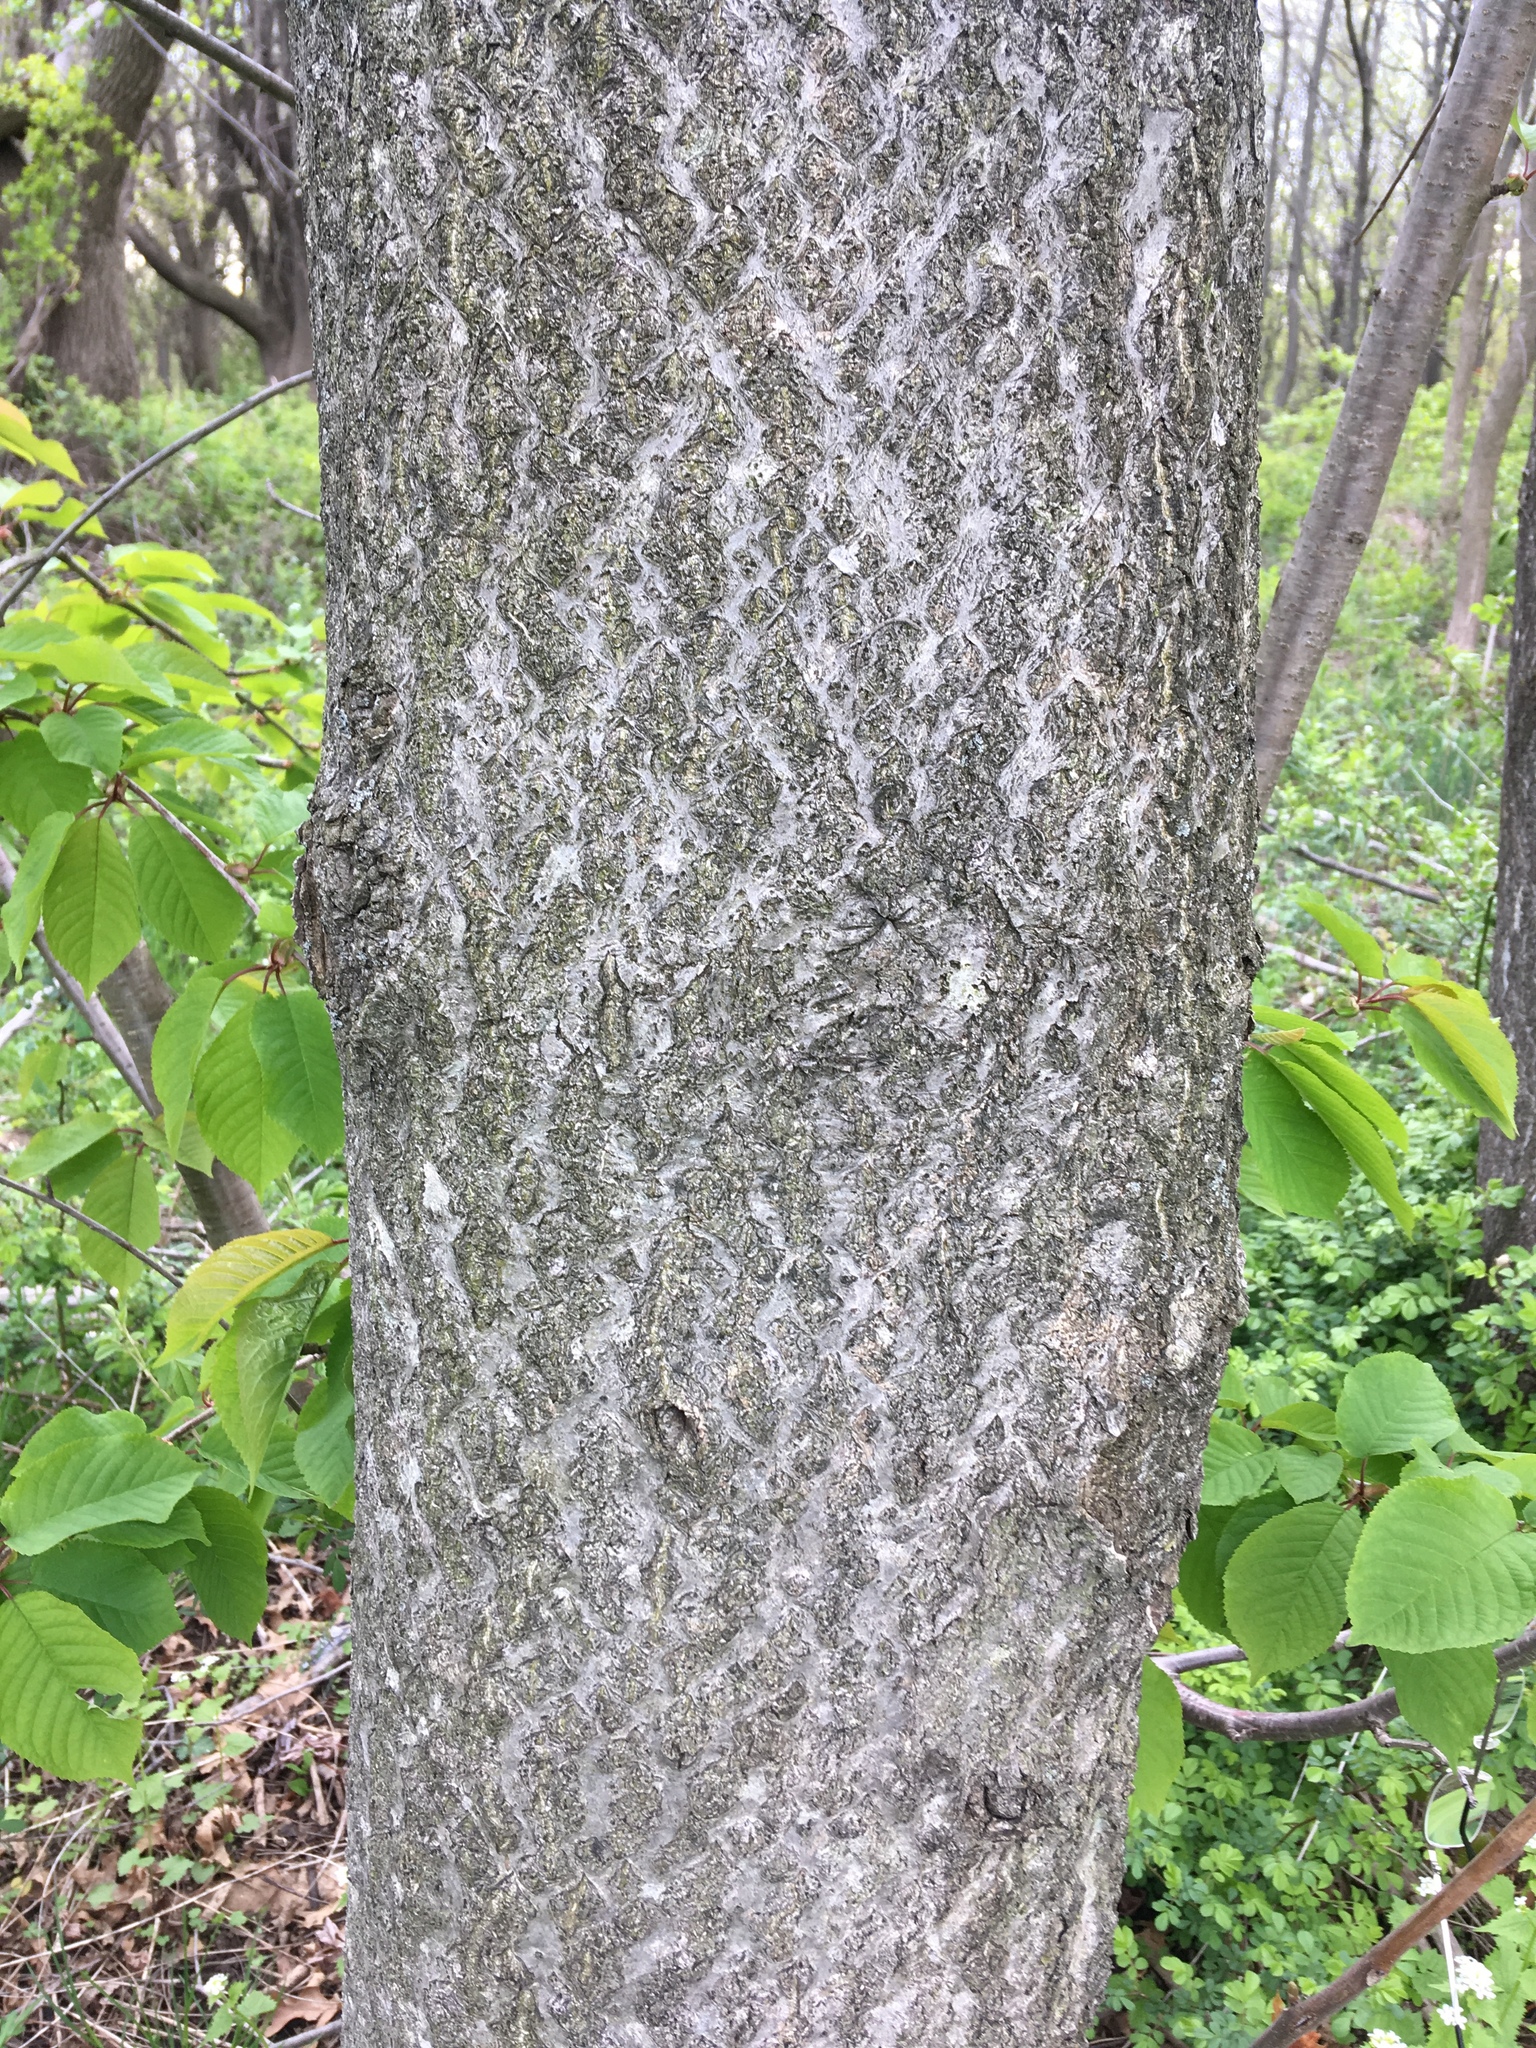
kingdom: Plantae
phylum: Tracheophyta
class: Magnoliopsida
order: Sapindales
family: Simaroubaceae
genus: Ailanthus
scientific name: Ailanthus altissima
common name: Tree-of-heaven
